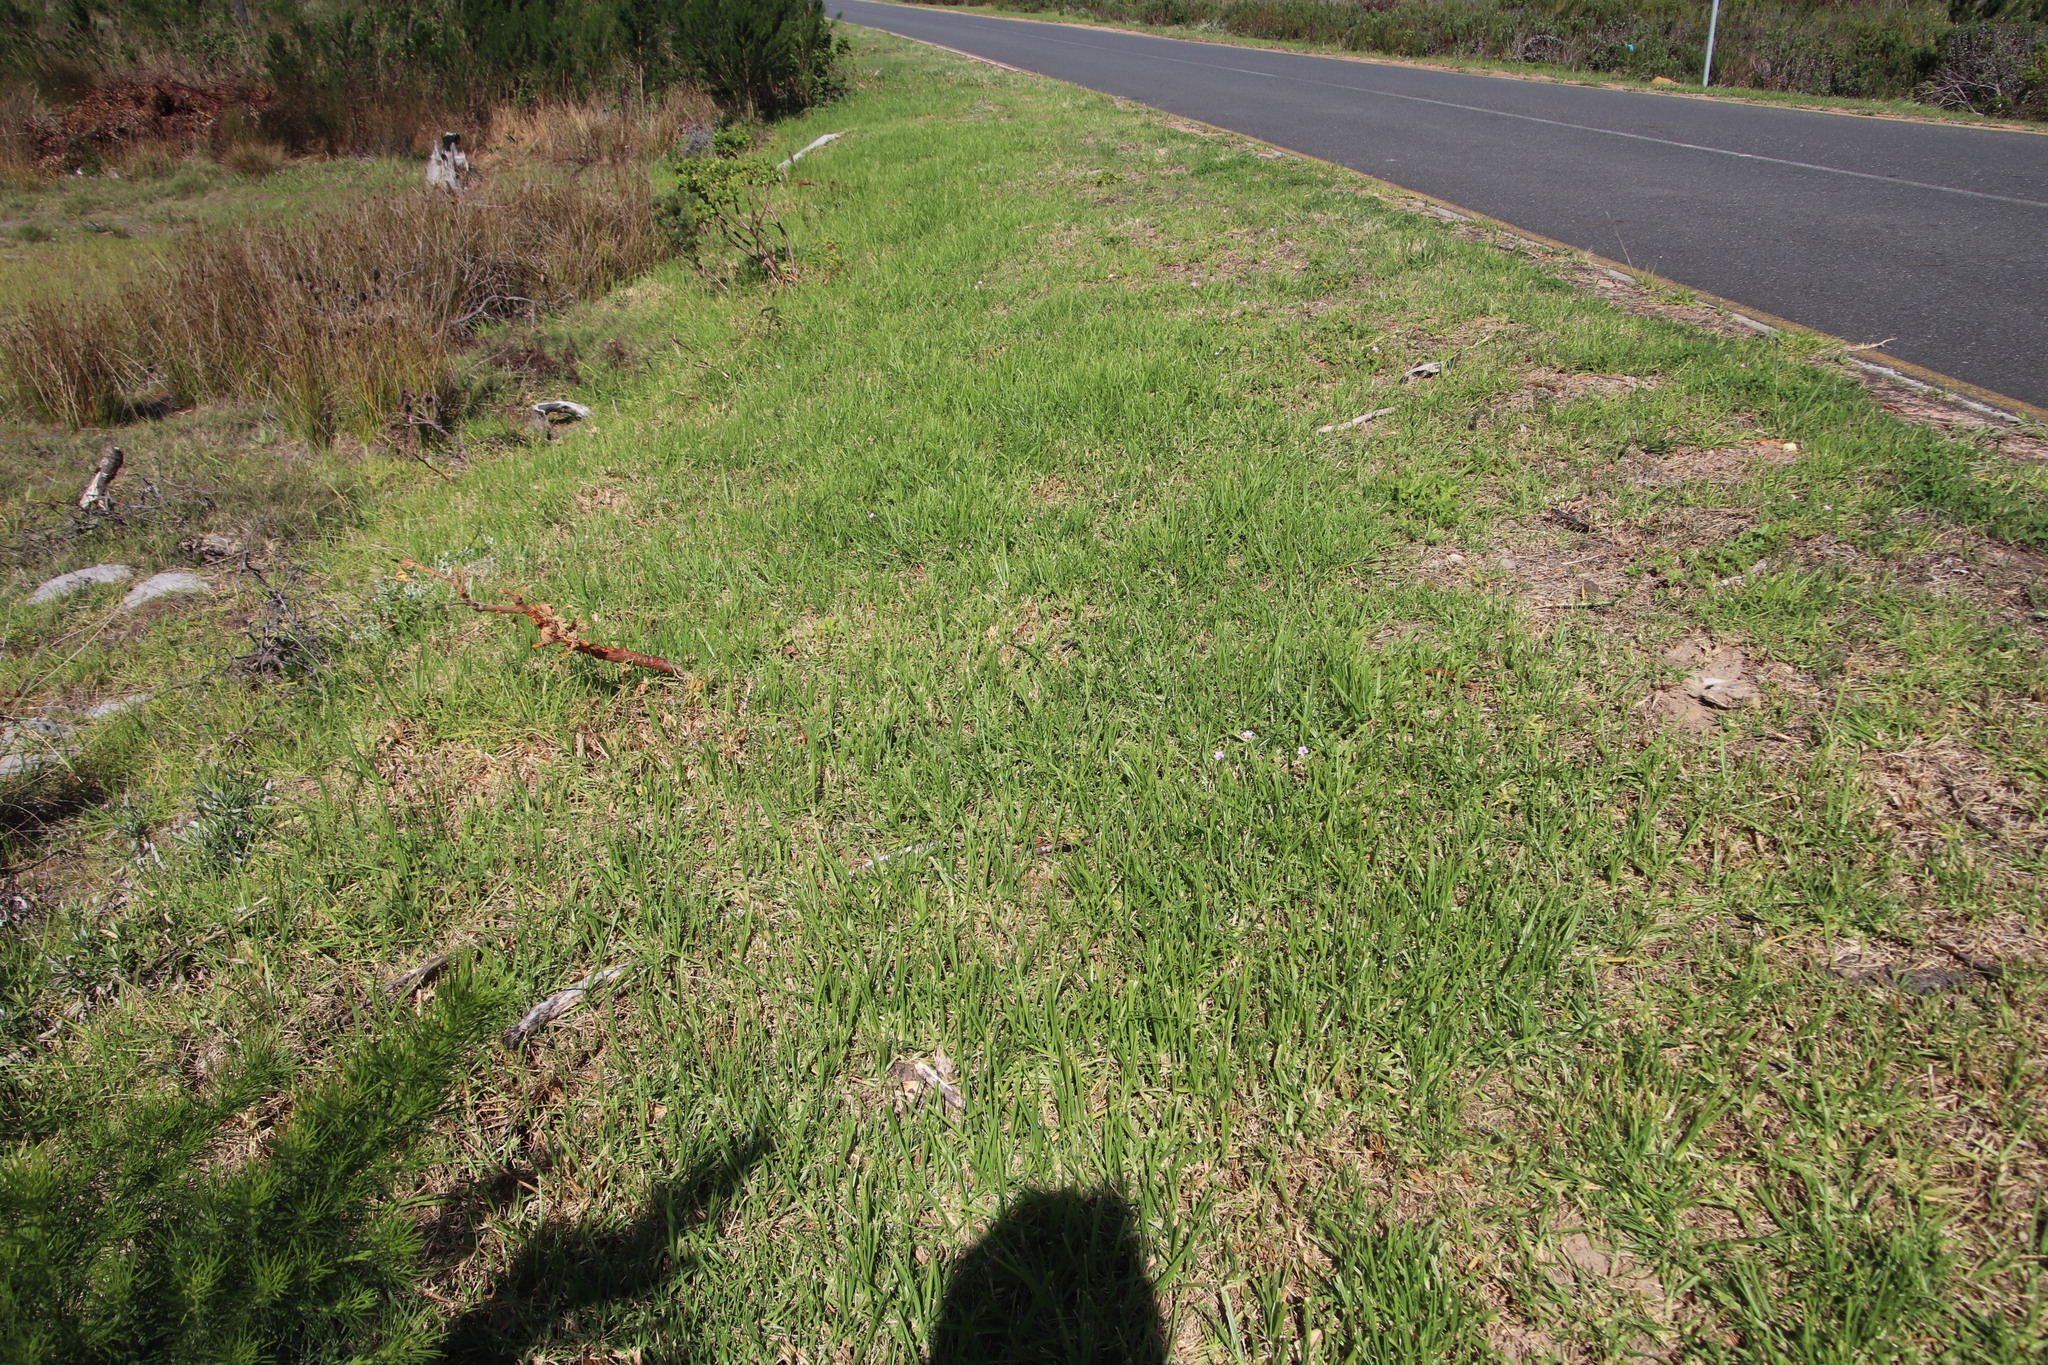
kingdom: Plantae
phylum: Tracheophyta
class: Liliopsida
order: Poales
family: Poaceae
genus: Cenchrus
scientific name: Cenchrus clandestinus
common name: Kikuyugrass
